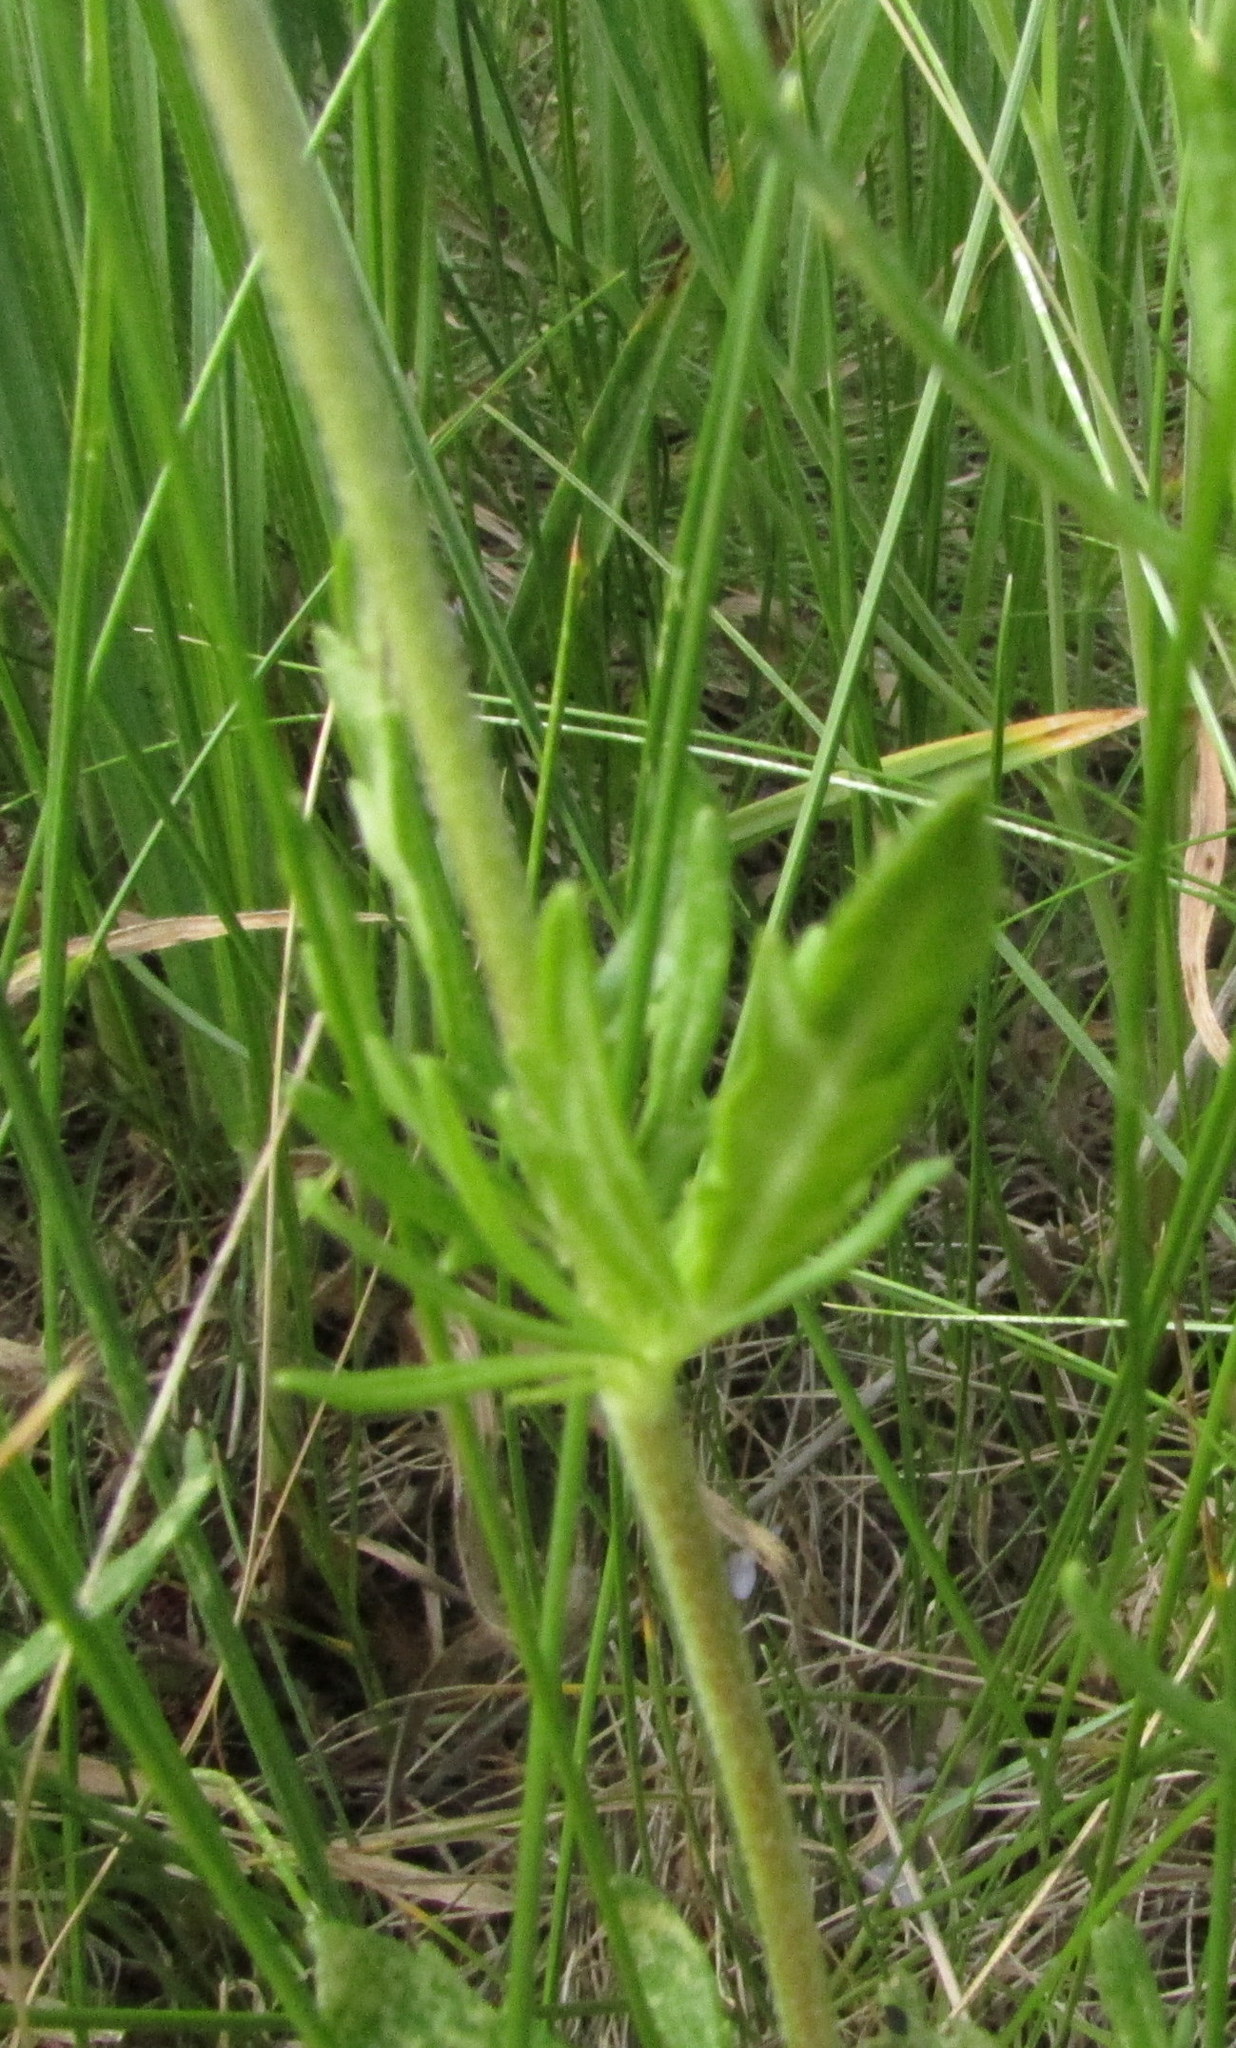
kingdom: Plantae
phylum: Tracheophyta
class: Magnoliopsida
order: Lamiales
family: Plantaginaceae
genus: Veronica
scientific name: Veronica austriaca
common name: Large speedwell
